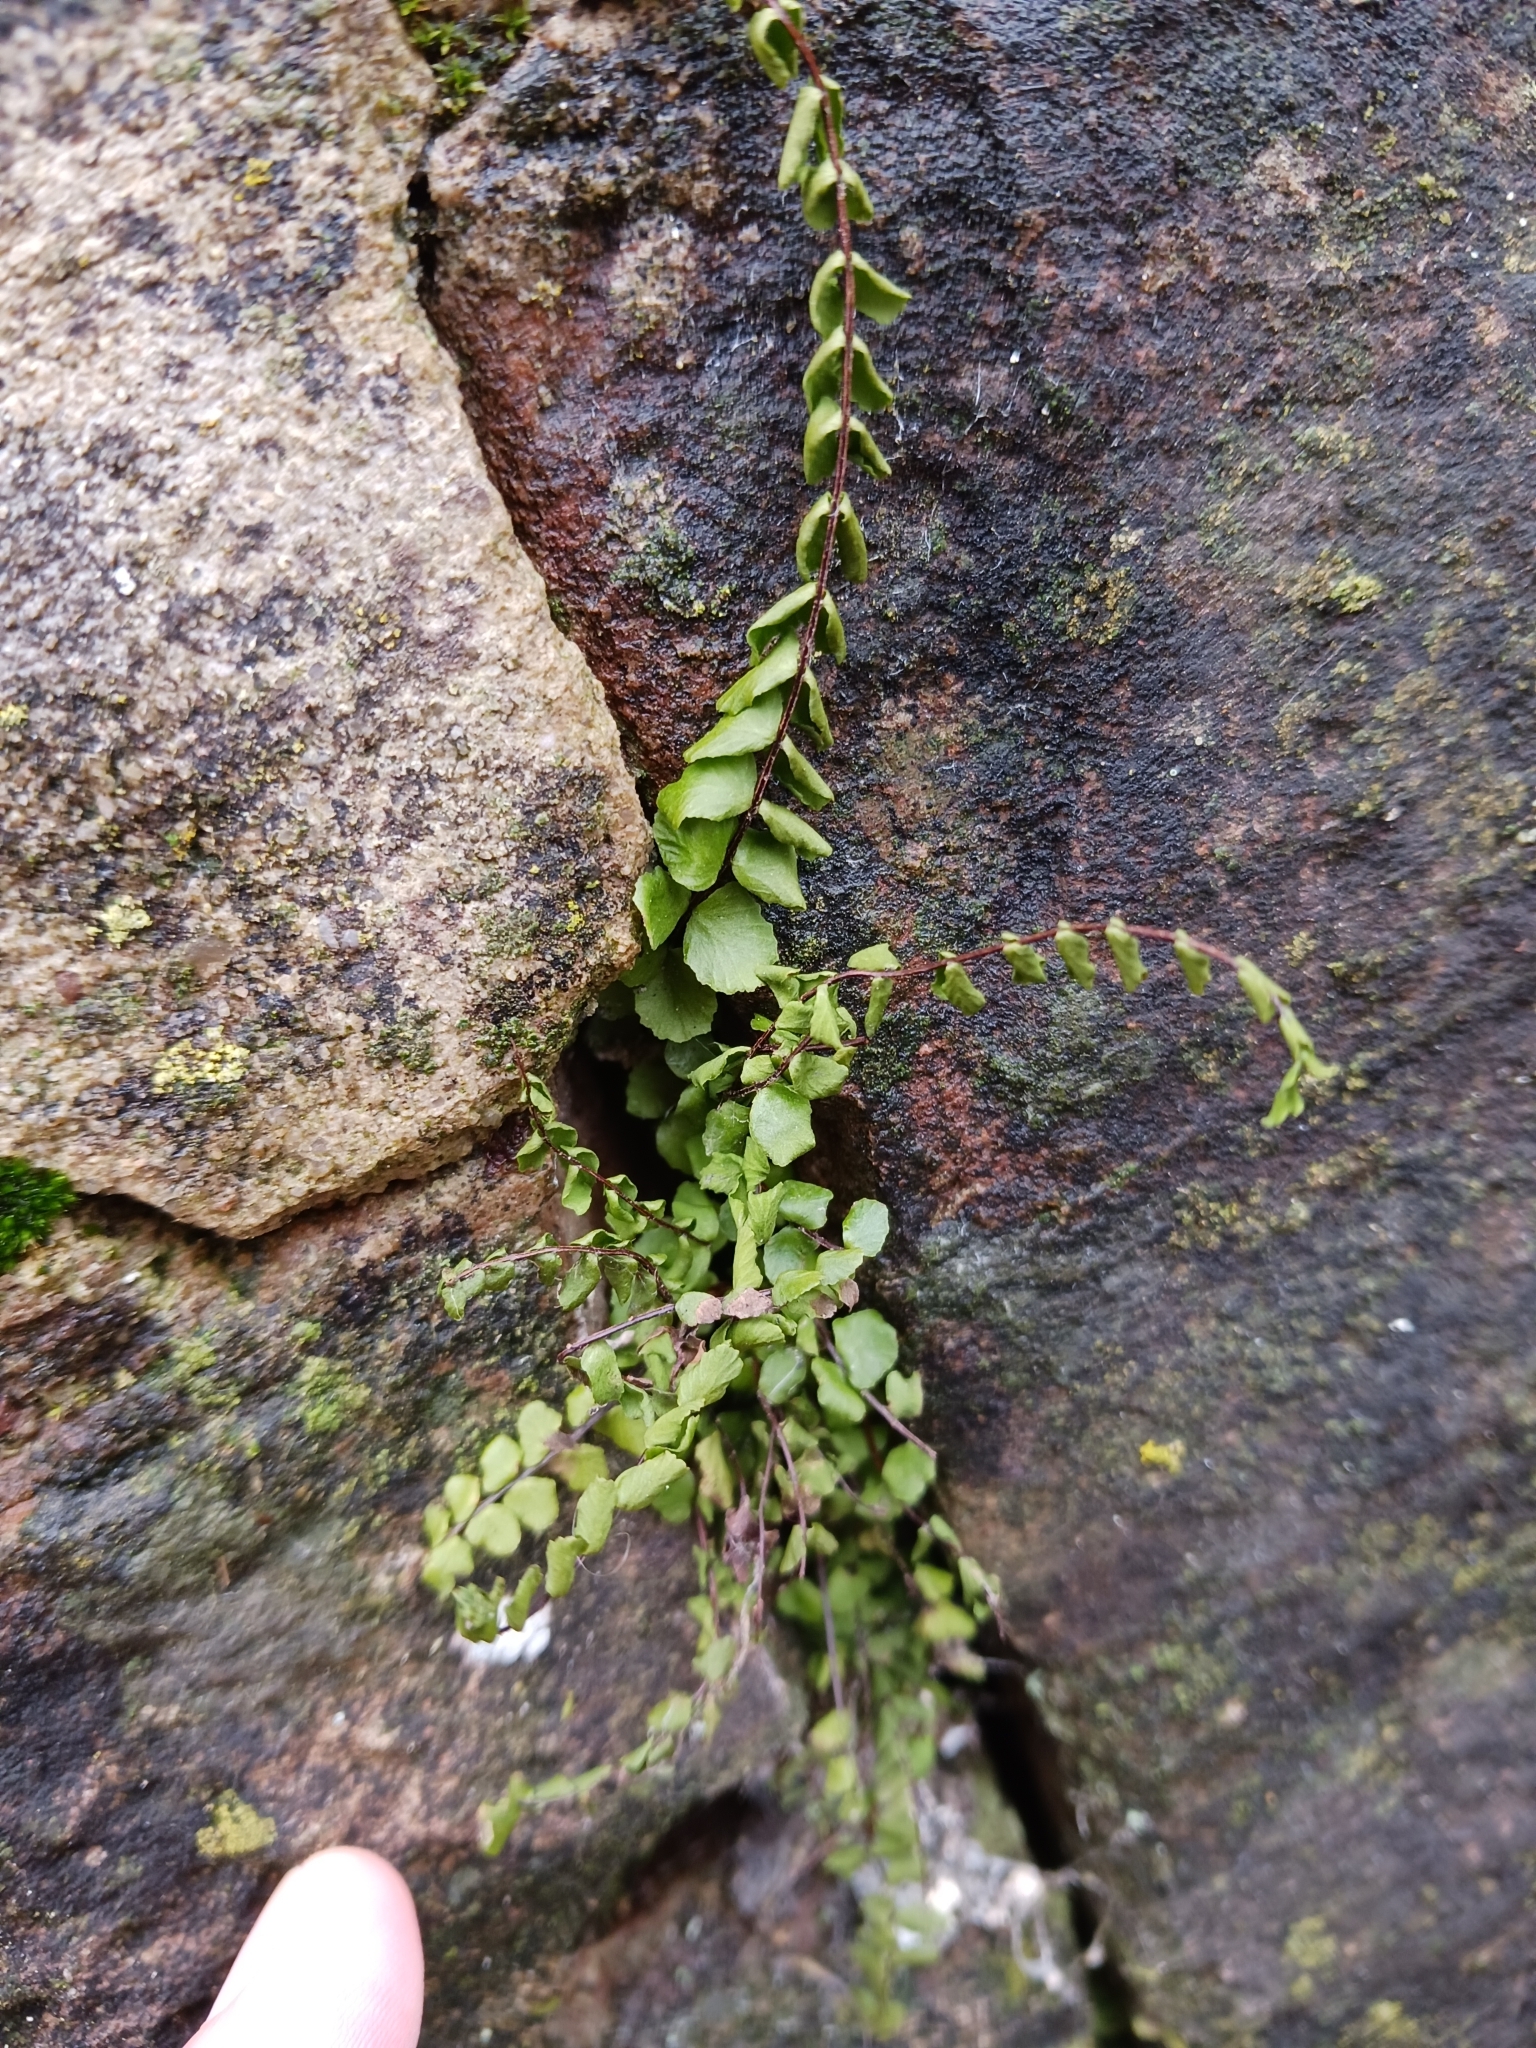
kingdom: Plantae
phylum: Tracheophyta
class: Polypodiopsida
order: Polypodiales
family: Aspleniaceae
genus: Asplenium
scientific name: Asplenium trichomanes
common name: Maidenhair spleenwort
